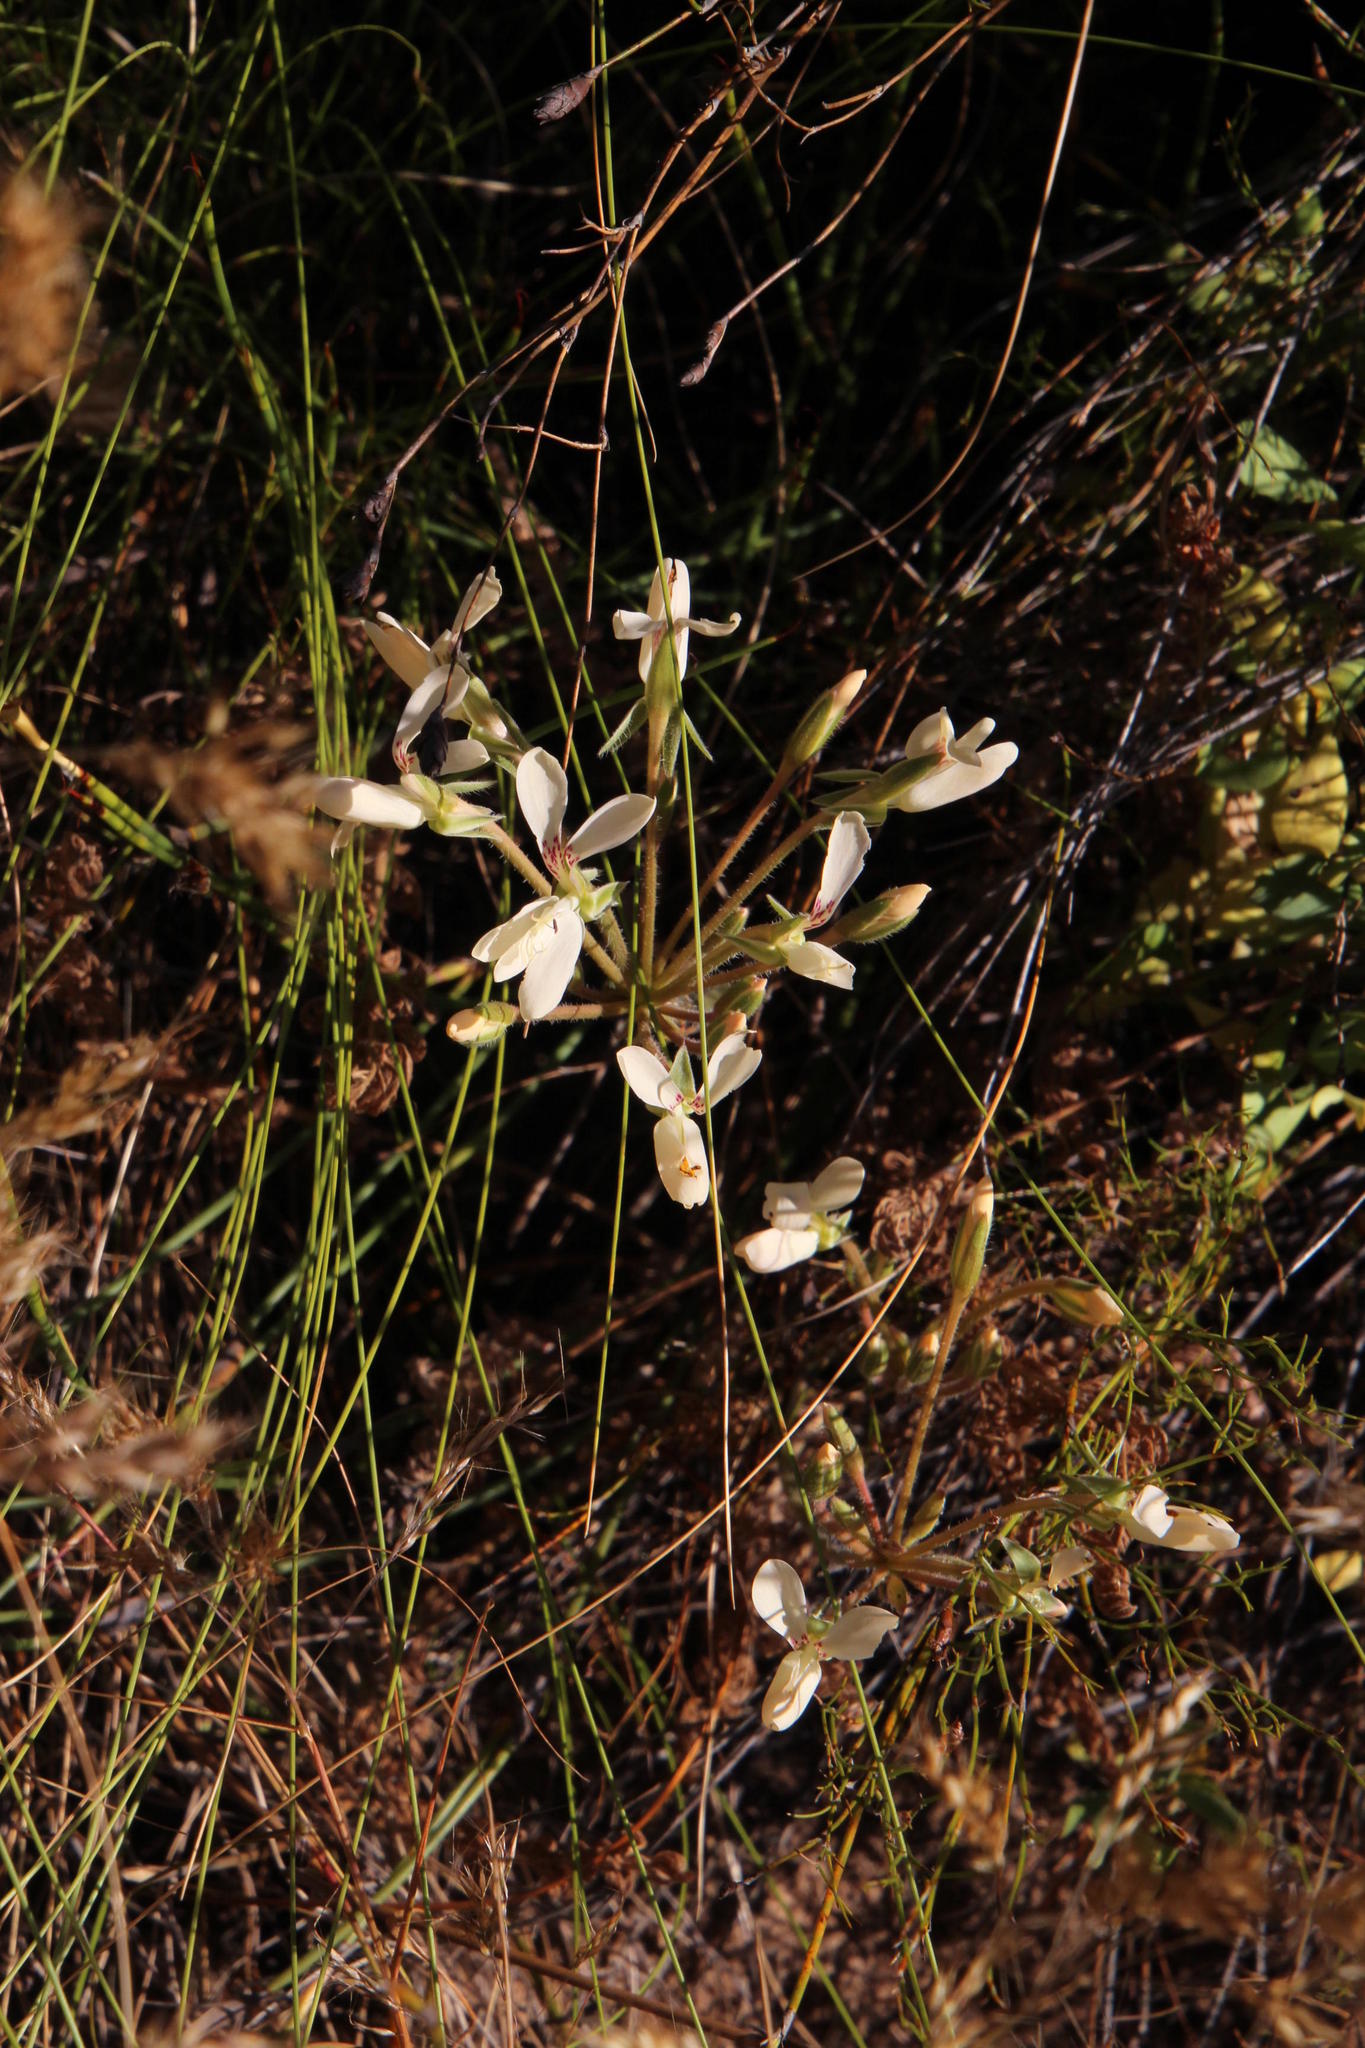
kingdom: Plantae
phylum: Tracheophyta
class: Magnoliopsida
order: Geraniales
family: Geraniaceae
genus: Pelargonium
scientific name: Pelargonium rapaceum
